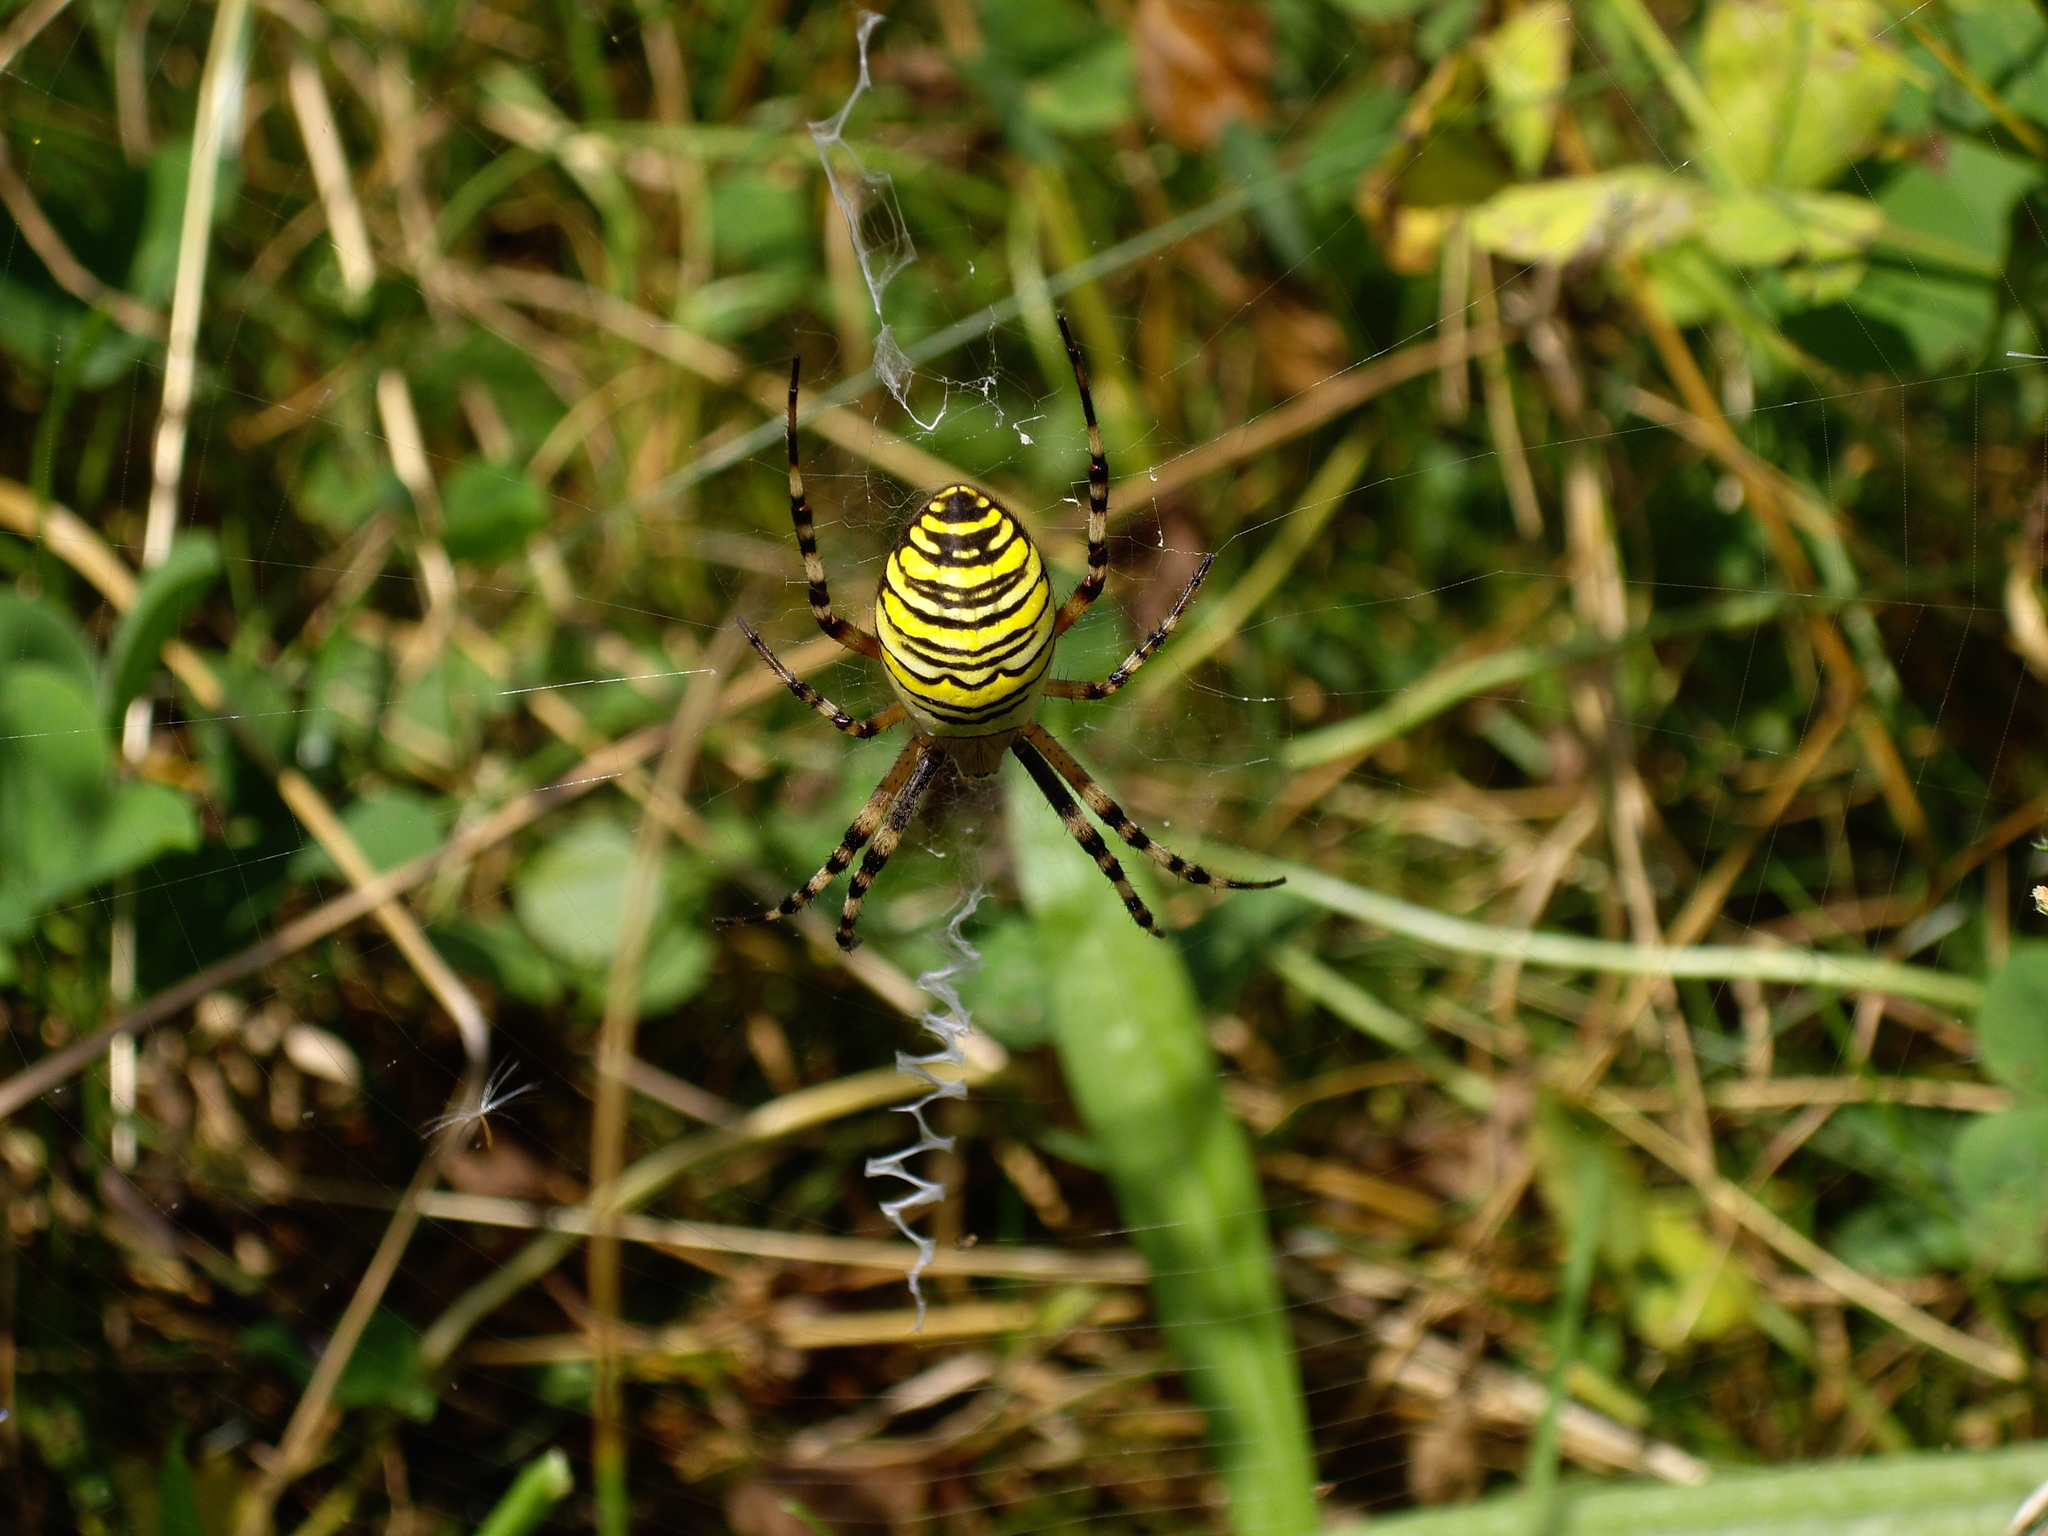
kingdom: Animalia
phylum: Arthropoda
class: Arachnida
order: Araneae
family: Araneidae
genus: Argiope
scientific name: Argiope bruennichi
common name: Wasp spider
